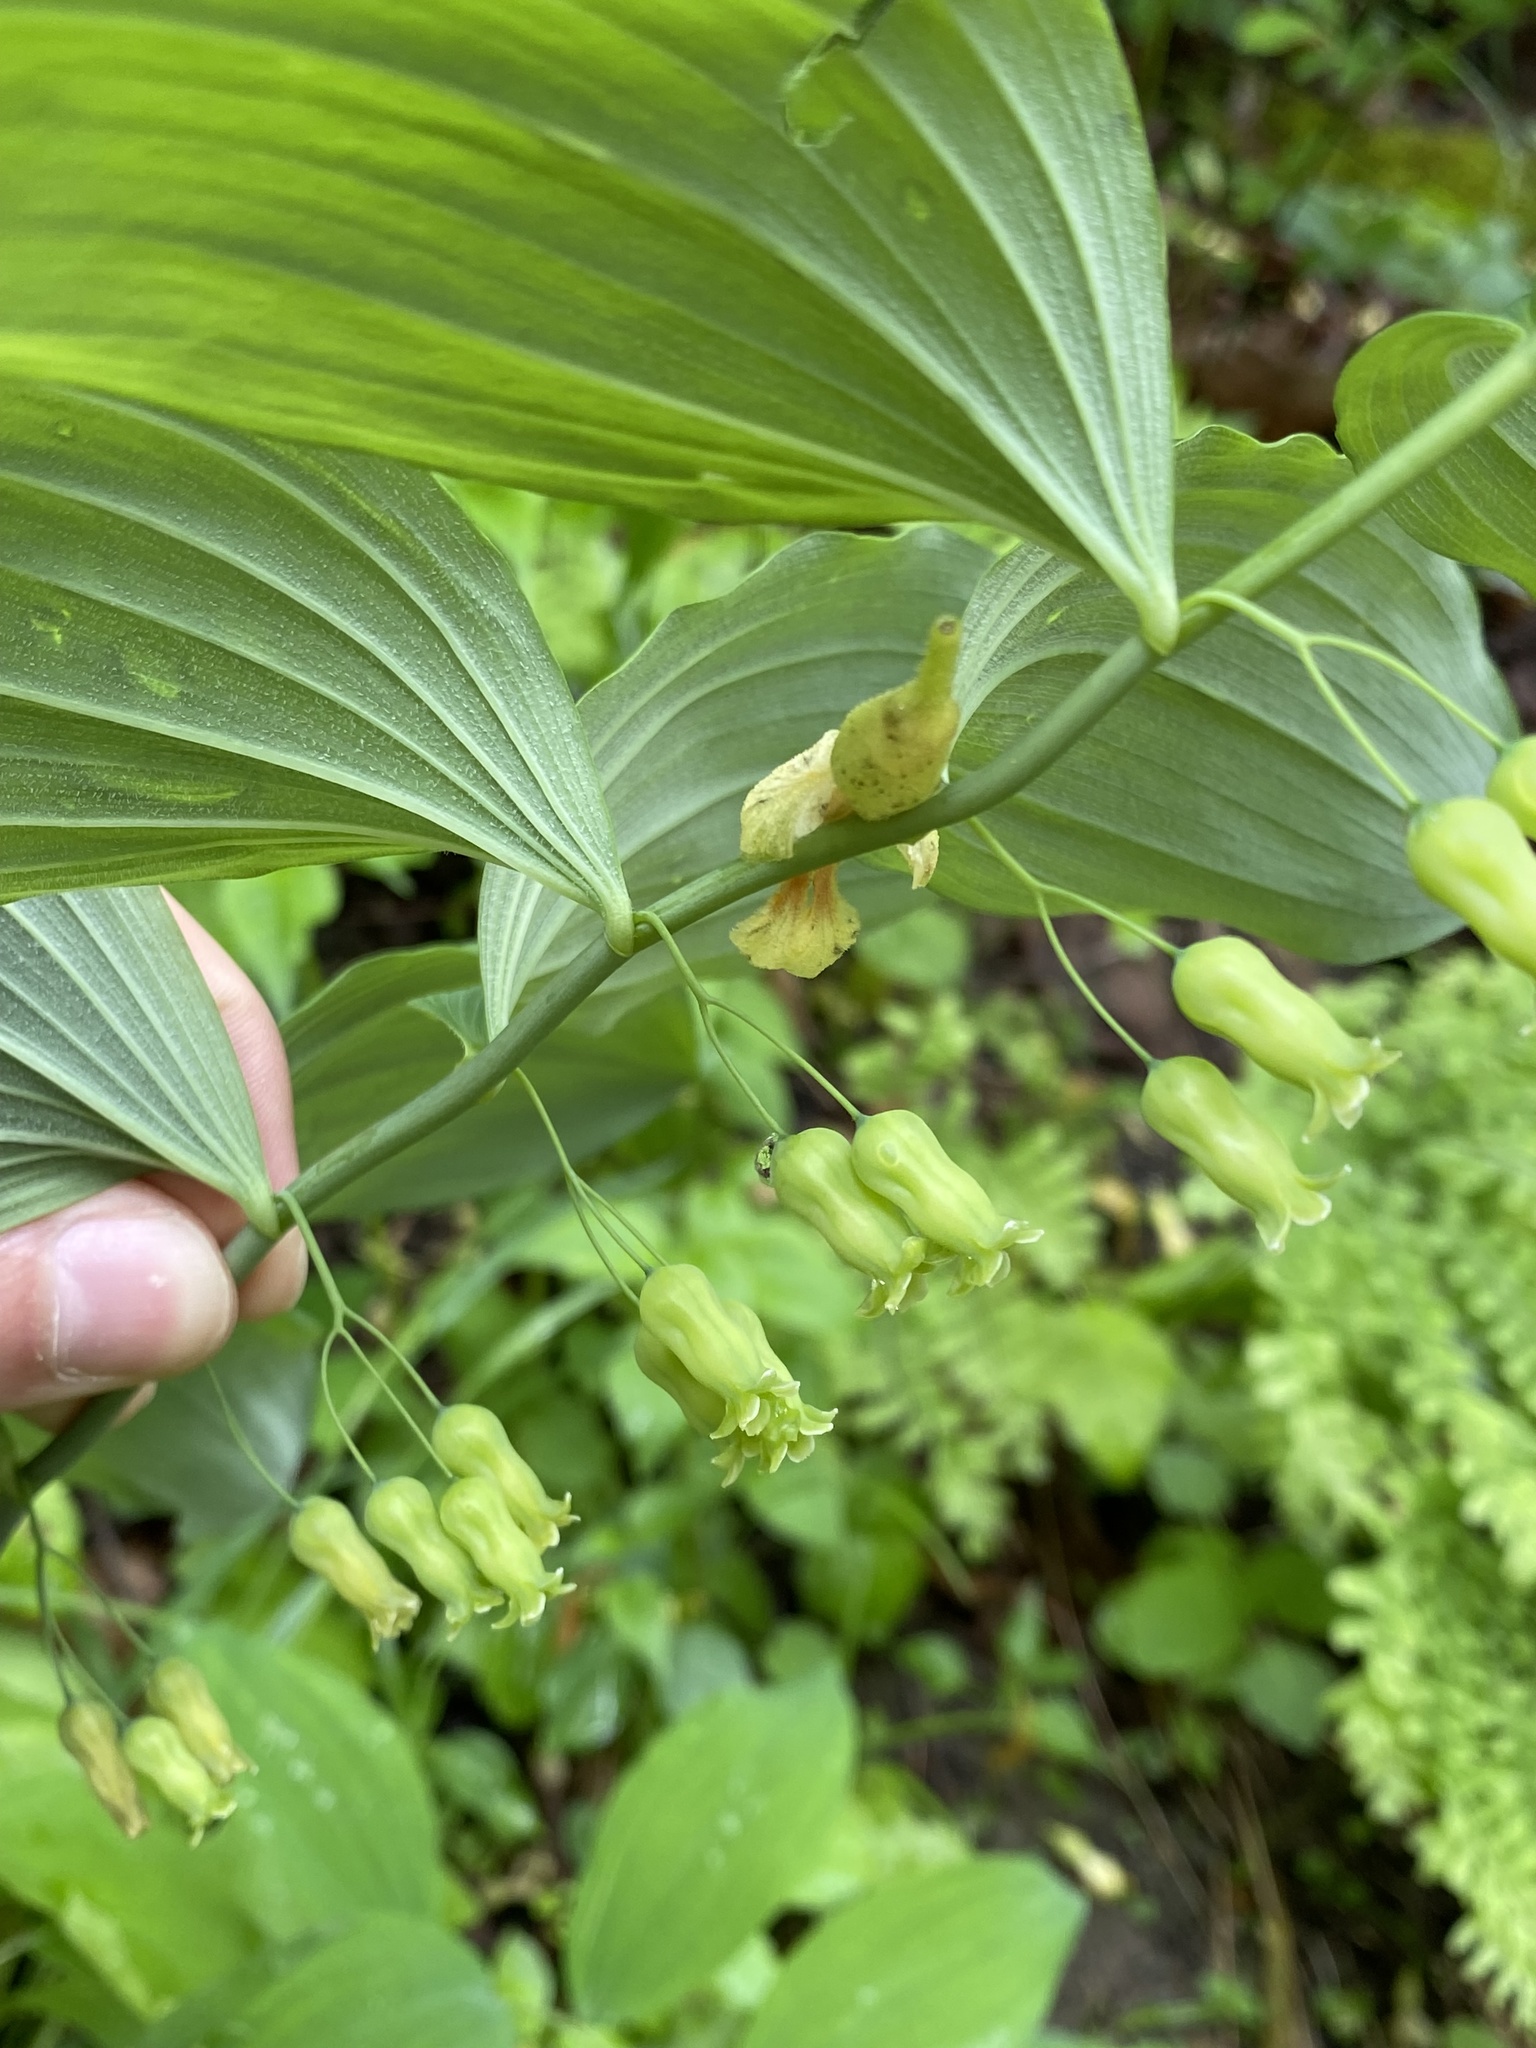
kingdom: Plantae
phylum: Tracheophyta
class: Liliopsida
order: Asparagales
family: Asparagaceae
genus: Polygonatum
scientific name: Polygonatum pubescens
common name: Downy solomon's seal
